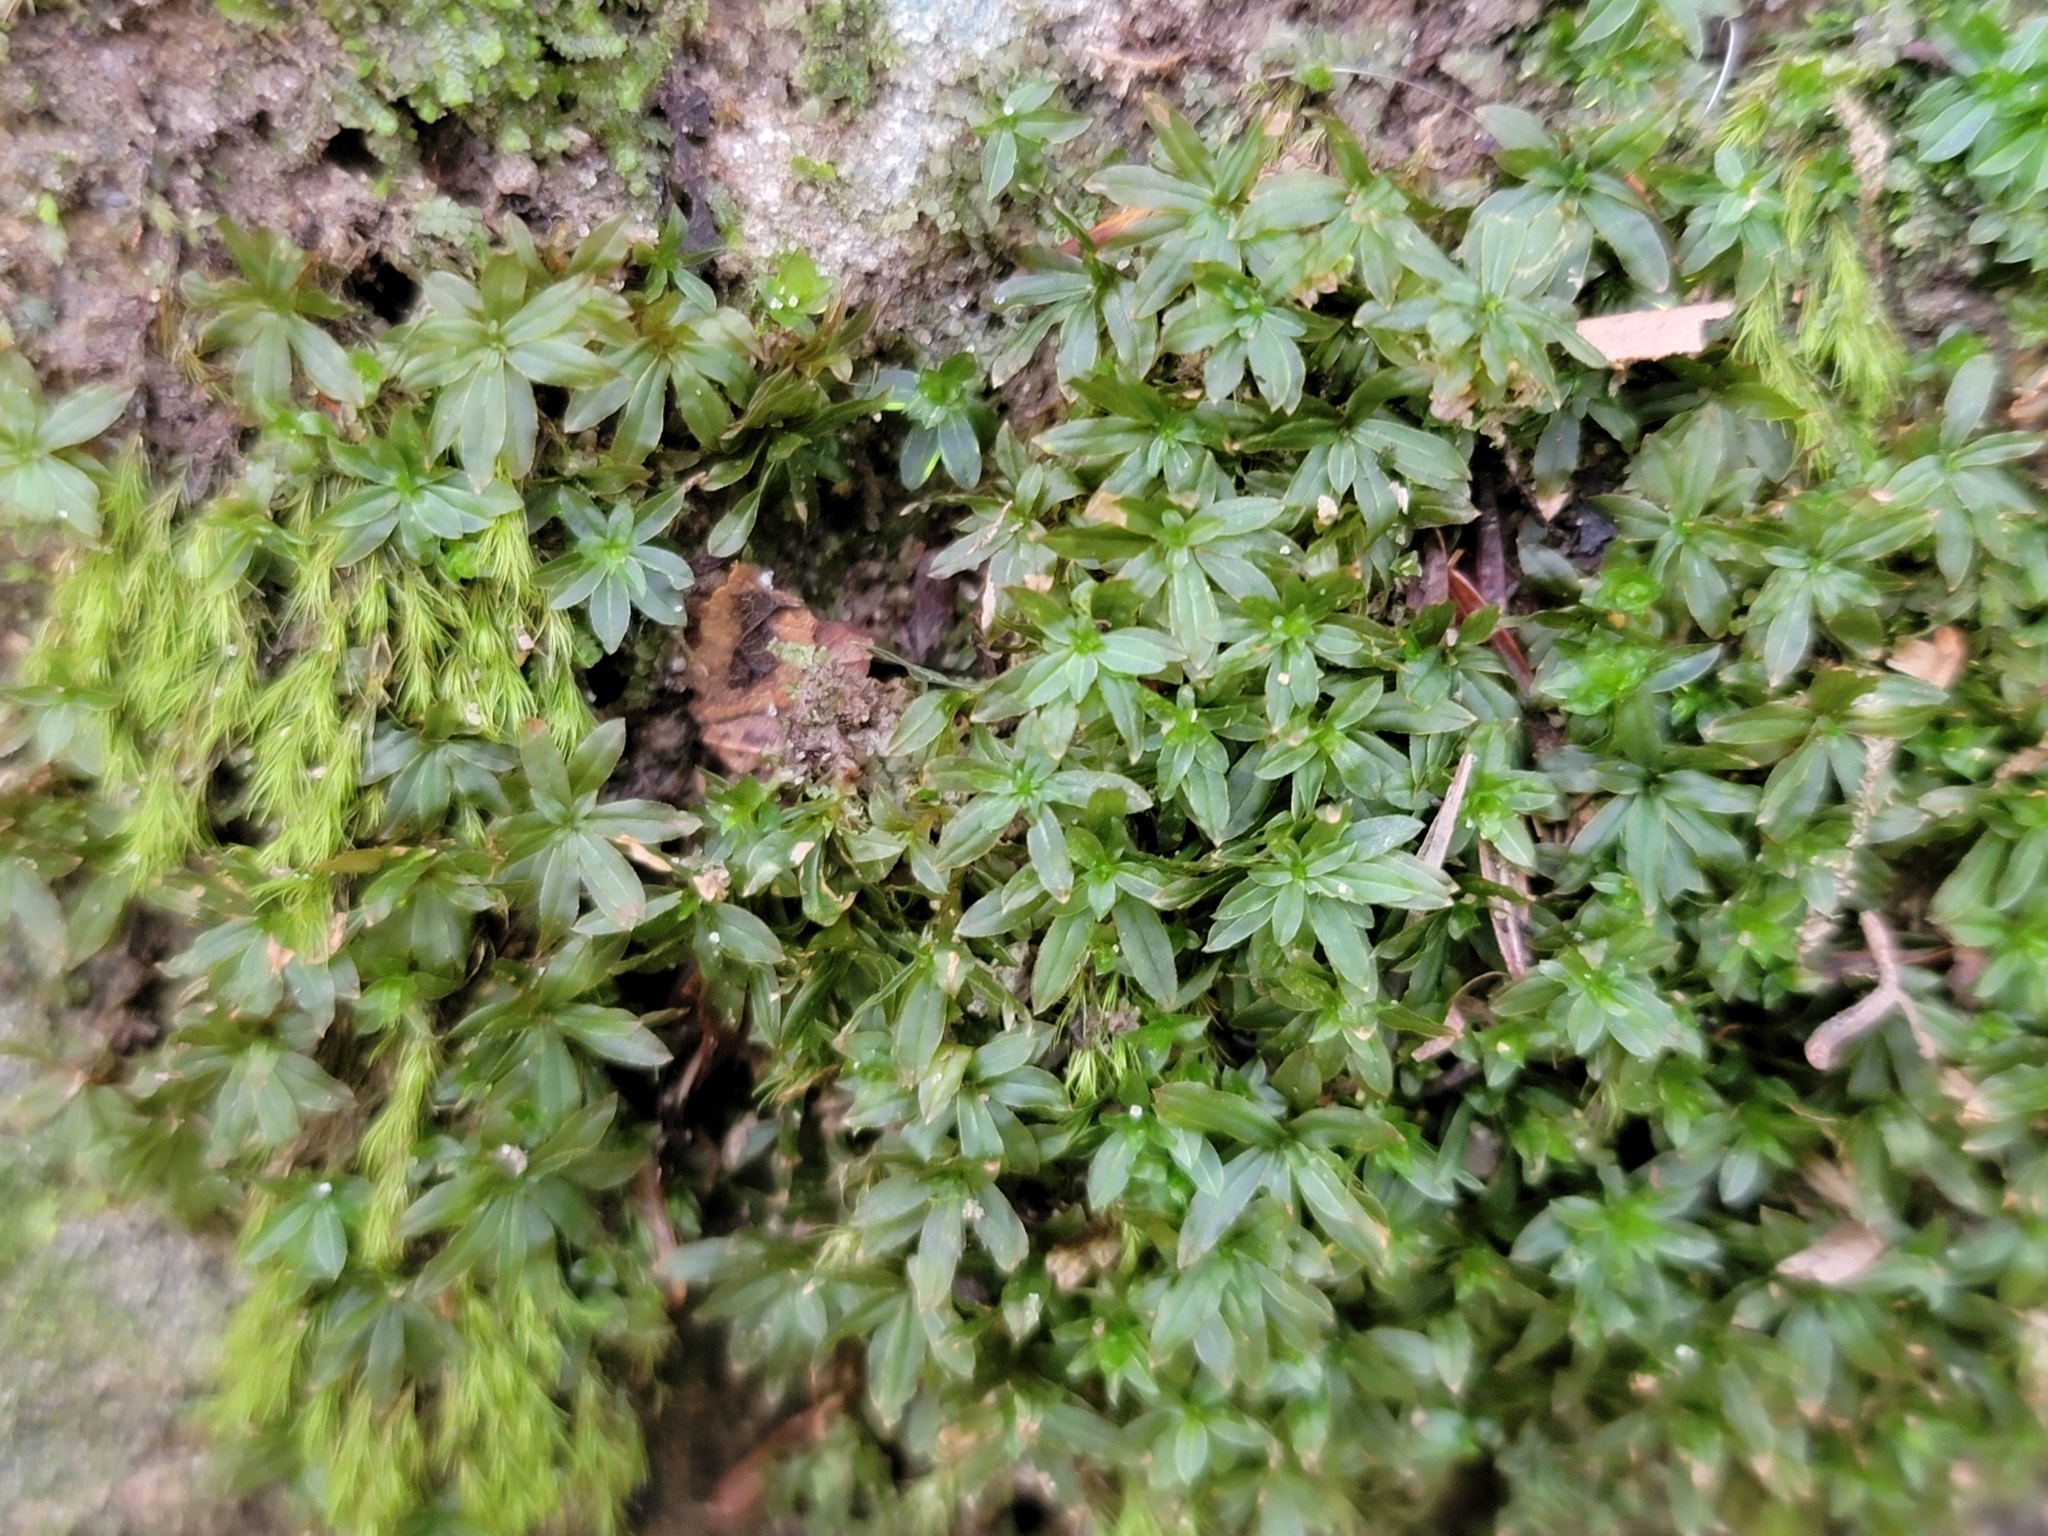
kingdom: Plantae
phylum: Bryophyta
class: Polytrichopsida
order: Polytrichales
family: Polytrichaceae
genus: Atrichum
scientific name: Atrichum crispum
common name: Fountain smoothcap
